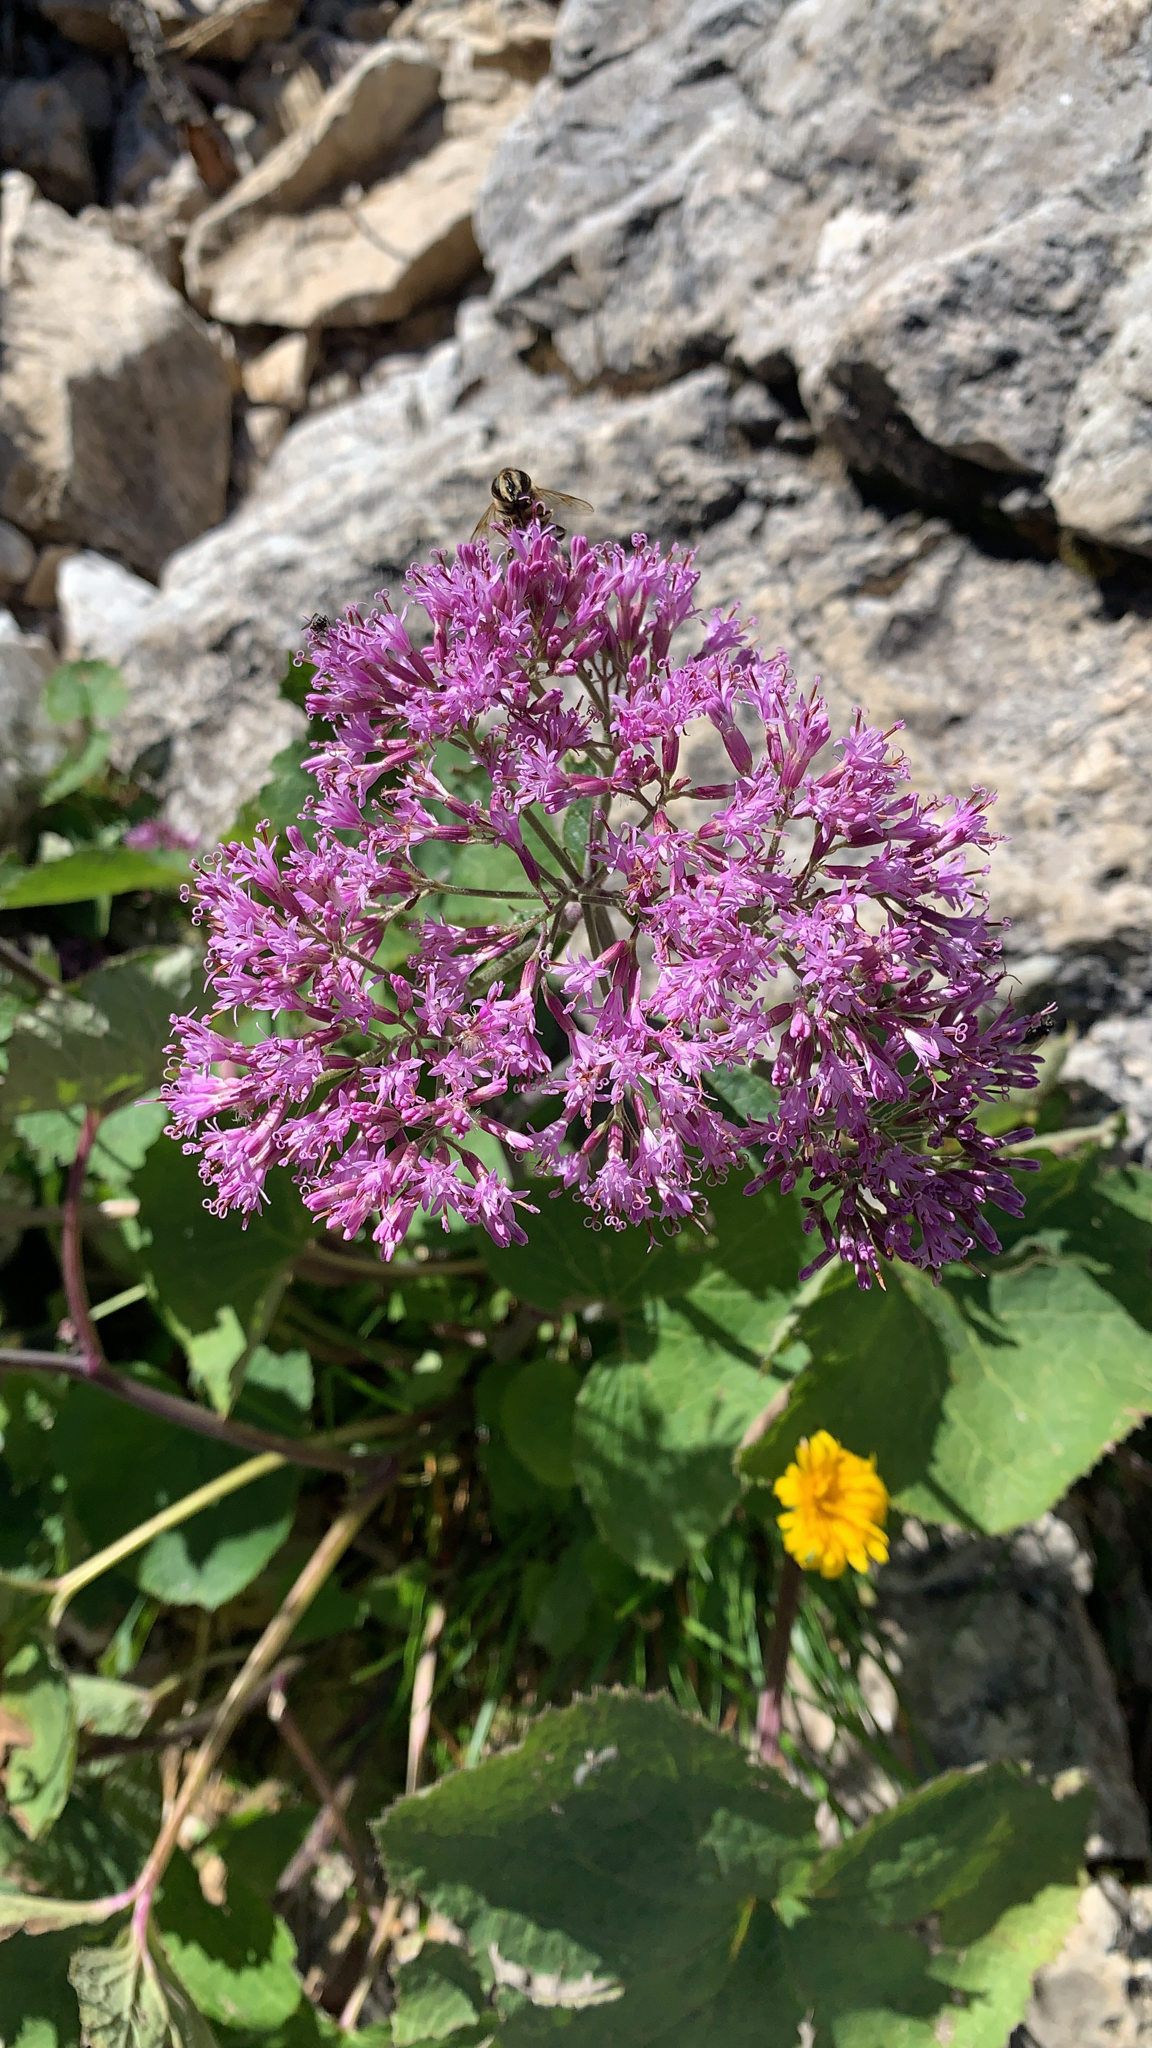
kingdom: Plantae
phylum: Tracheophyta
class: Magnoliopsida
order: Asterales
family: Asteraceae
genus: Adenostyles
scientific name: Adenostyles alliariae
